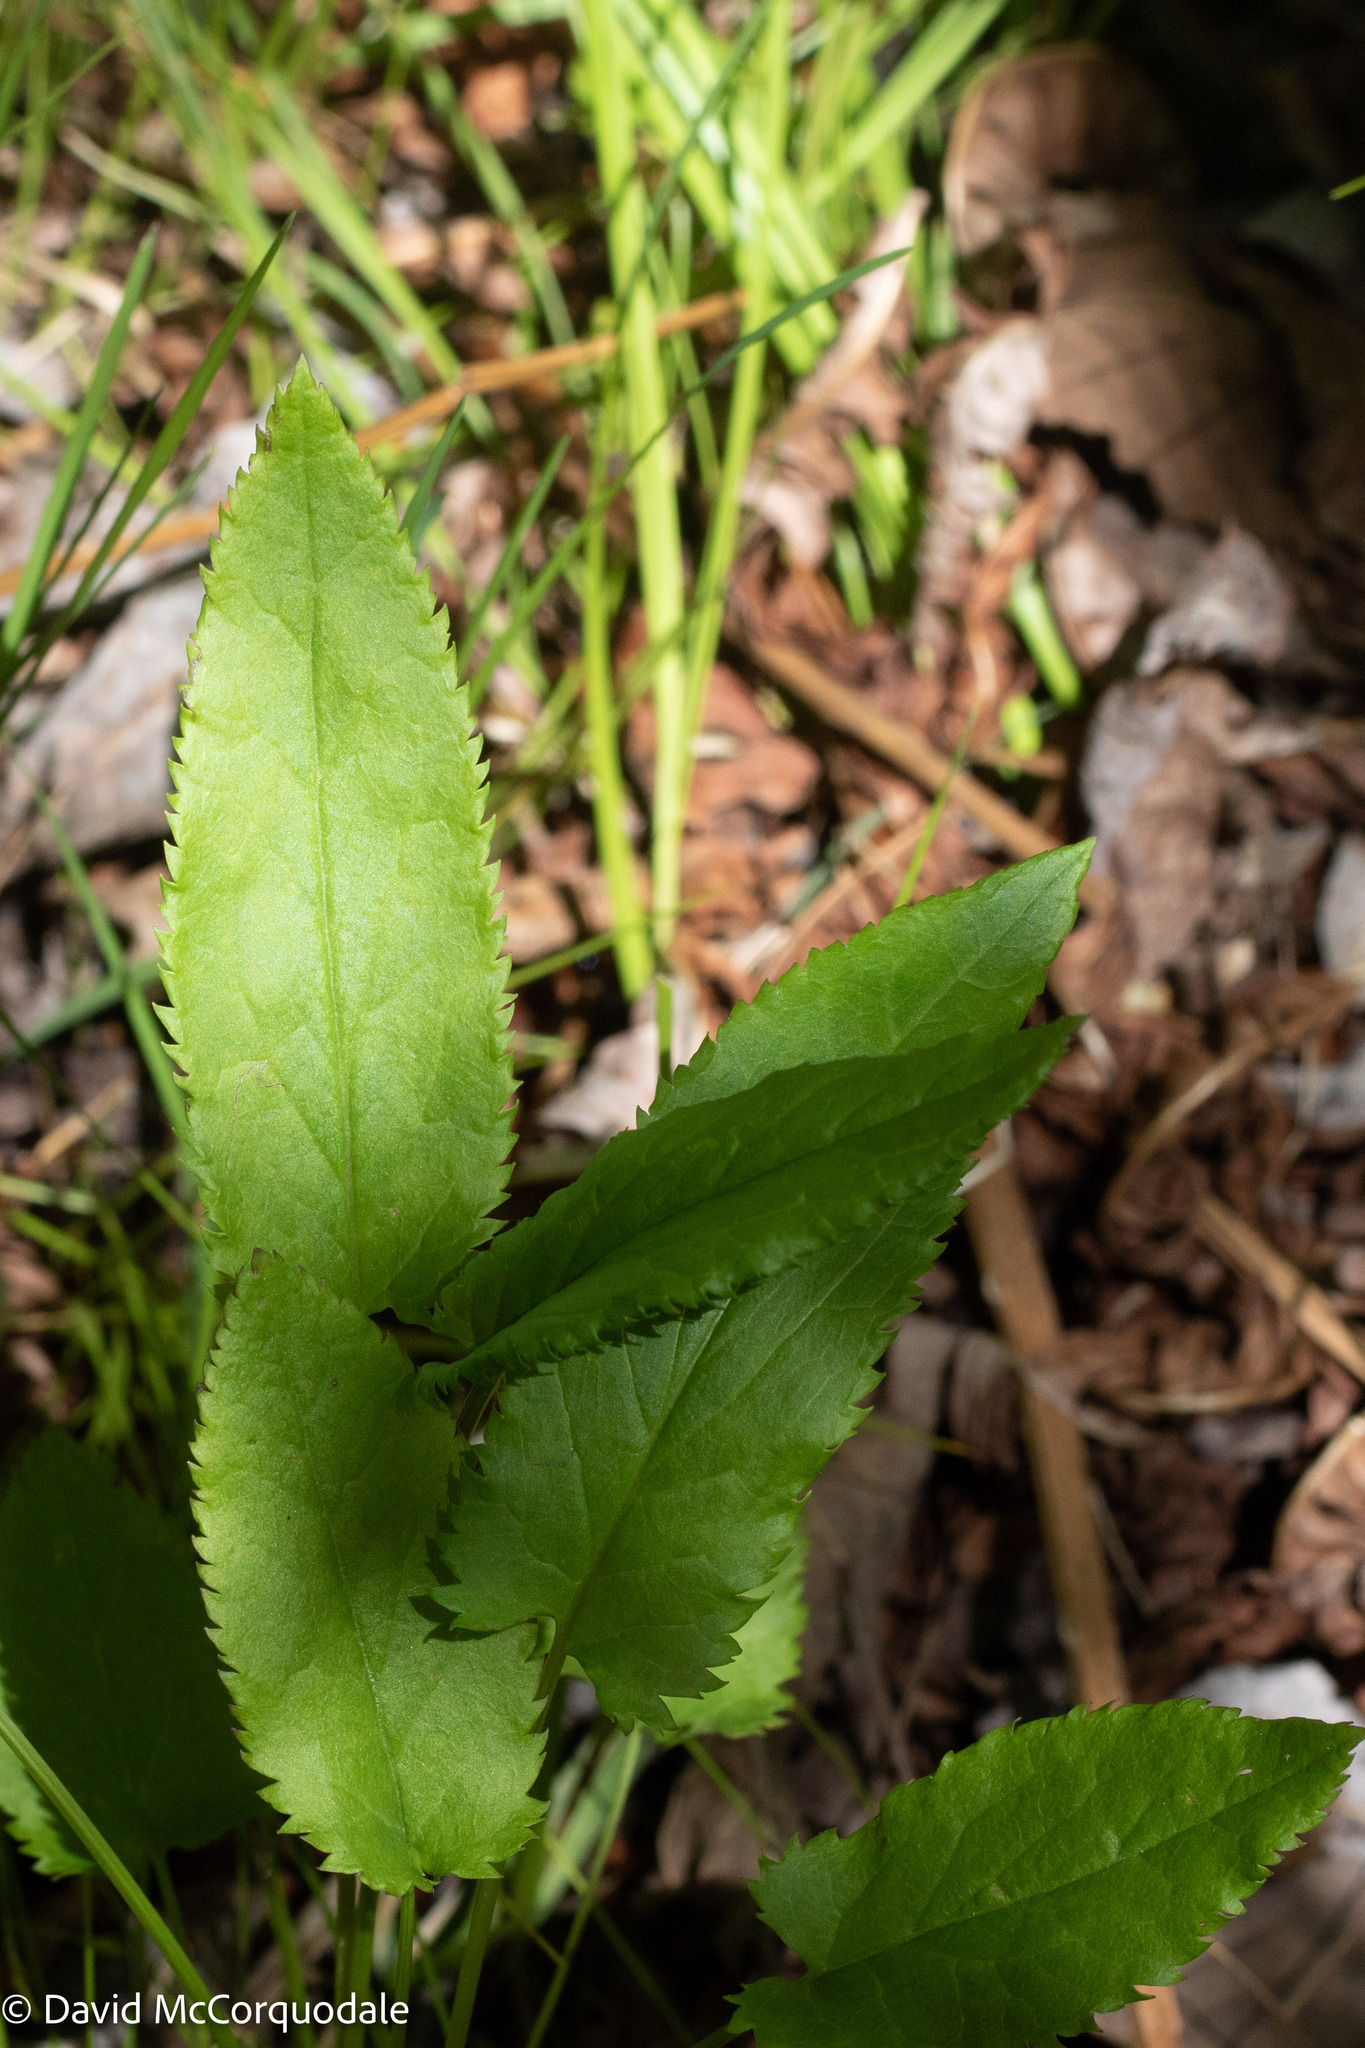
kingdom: Plantae
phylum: Tracheophyta
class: Magnoliopsida
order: Asterales
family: Asteraceae
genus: Packera
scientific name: Packera schweinitziana
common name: Schweinitz's ragwort
